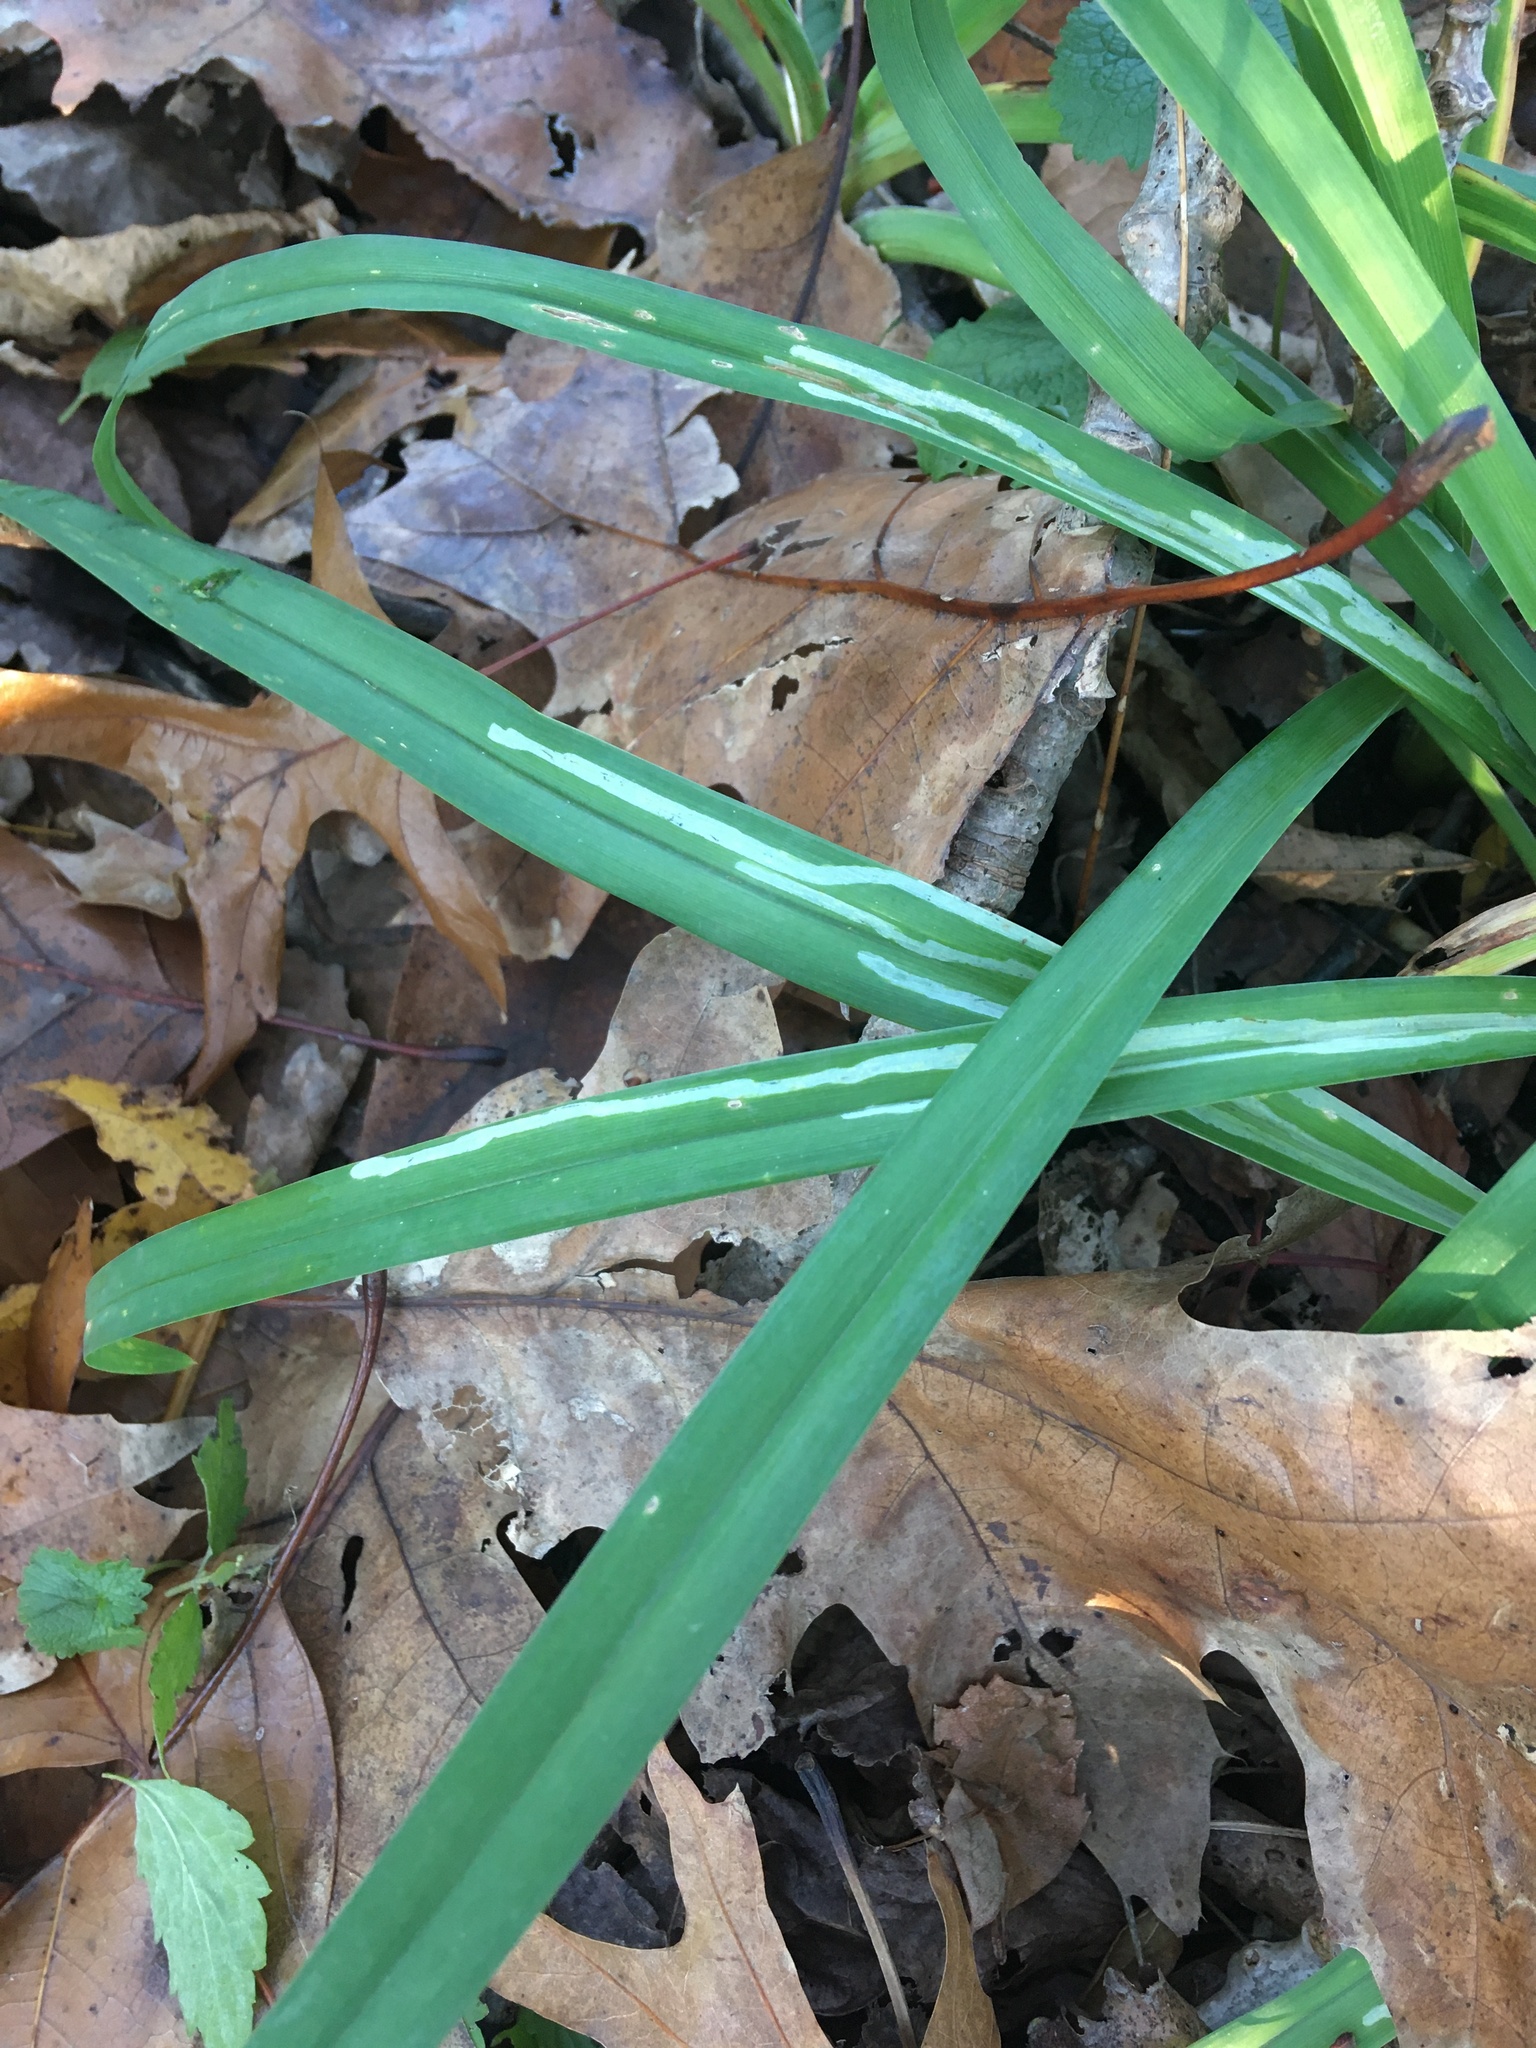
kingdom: Animalia
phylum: Arthropoda
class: Insecta
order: Diptera
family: Agromyzidae
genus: Ophiomyia
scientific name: Ophiomyia kwansonis
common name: Daylily leafminer
